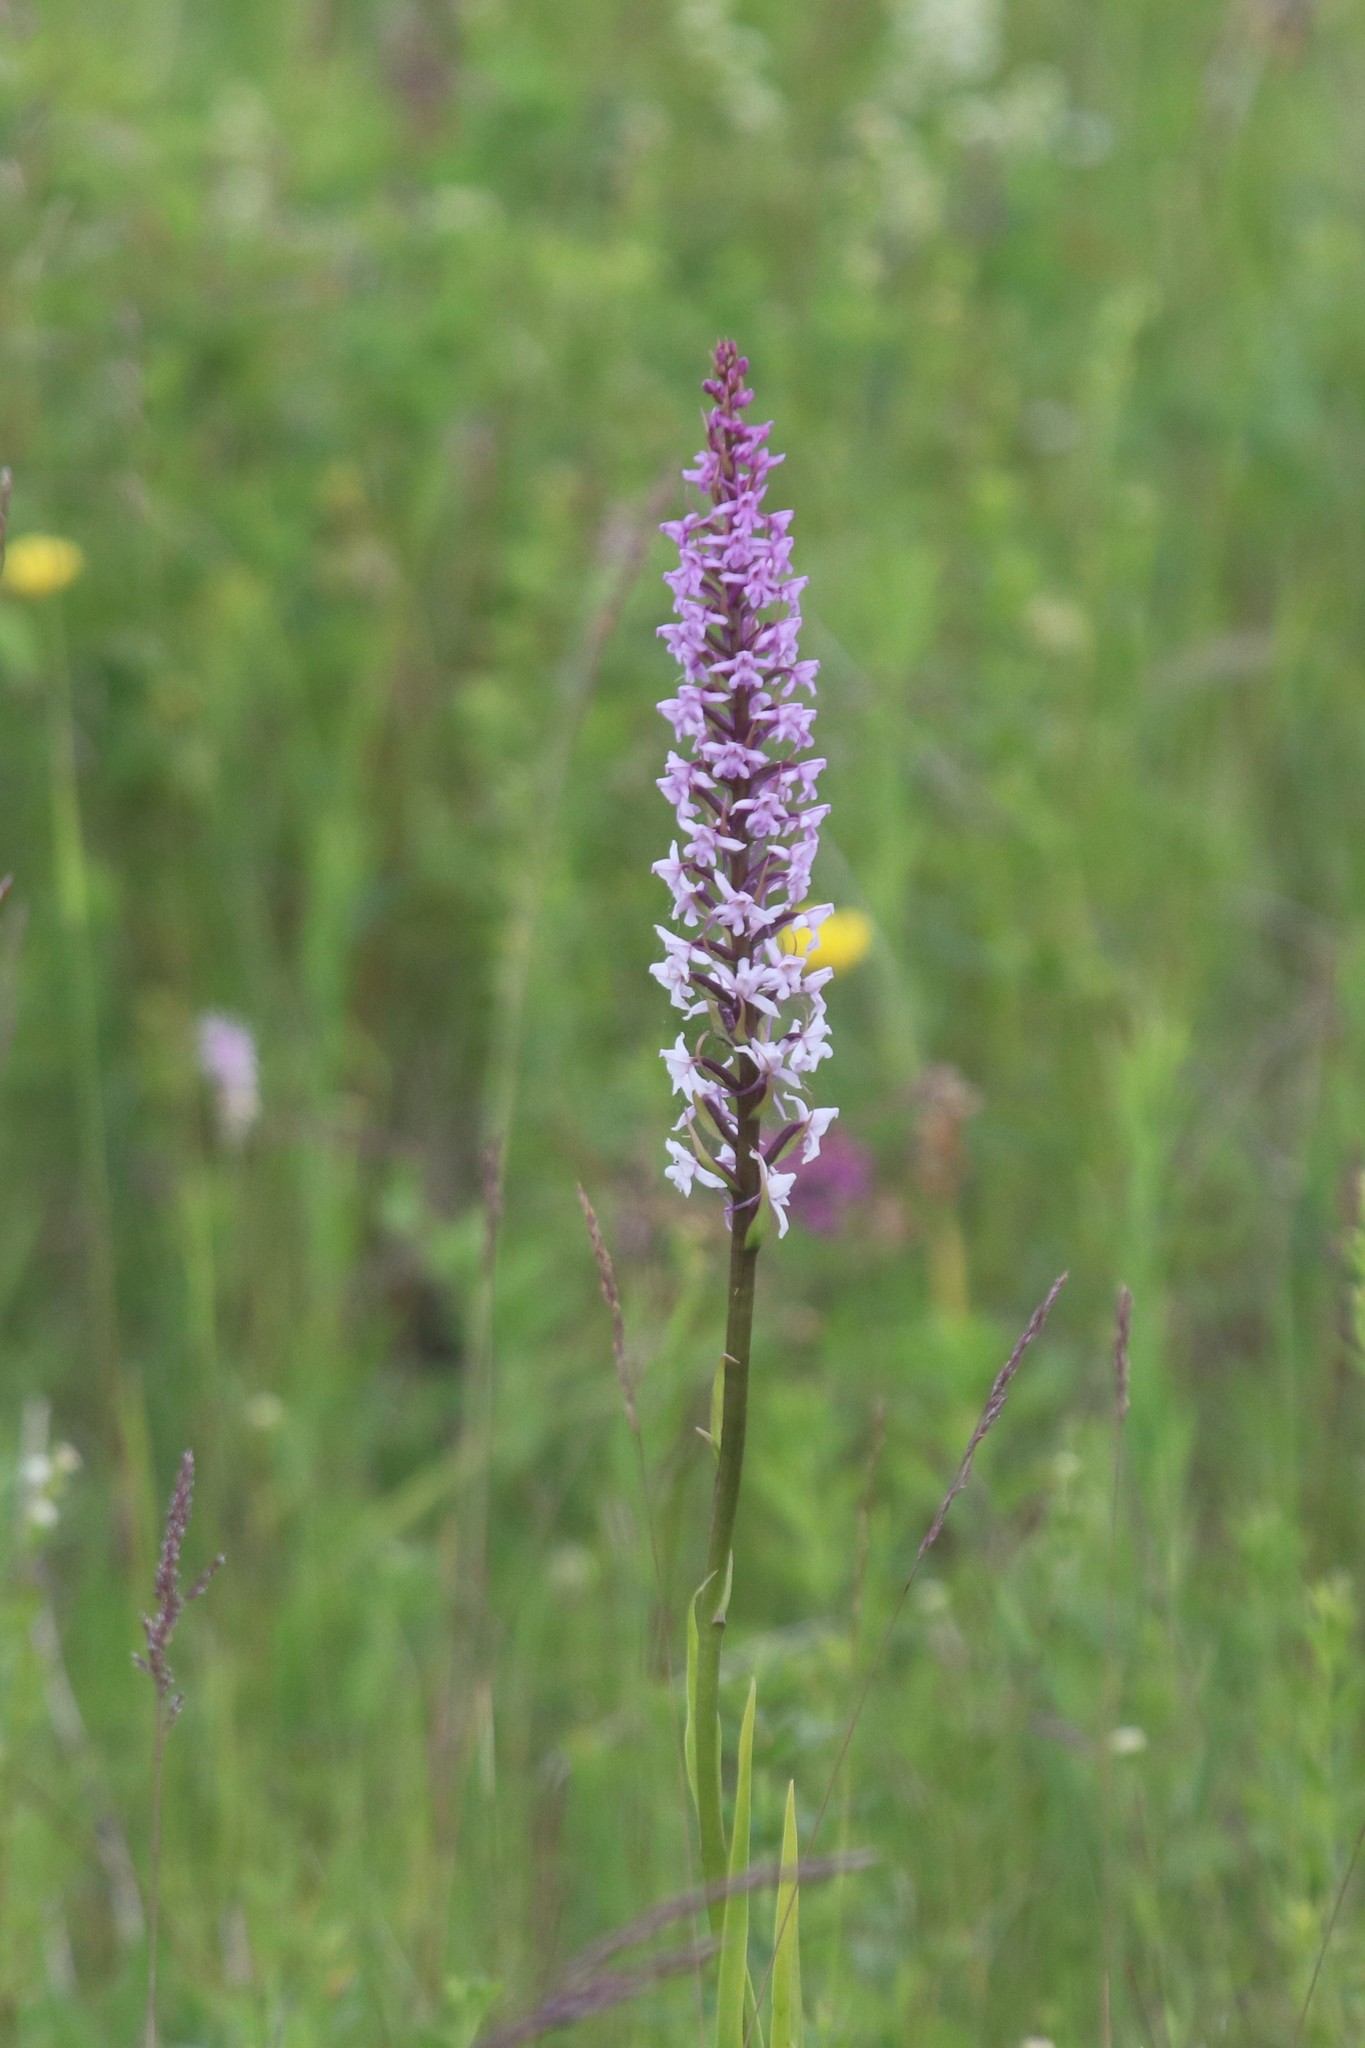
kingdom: Plantae
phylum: Tracheophyta
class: Liliopsida
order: Asparagales
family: Orchidaceae
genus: Gymnadenia
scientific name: Gymnadenia conopsea
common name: Fragrant orchid
